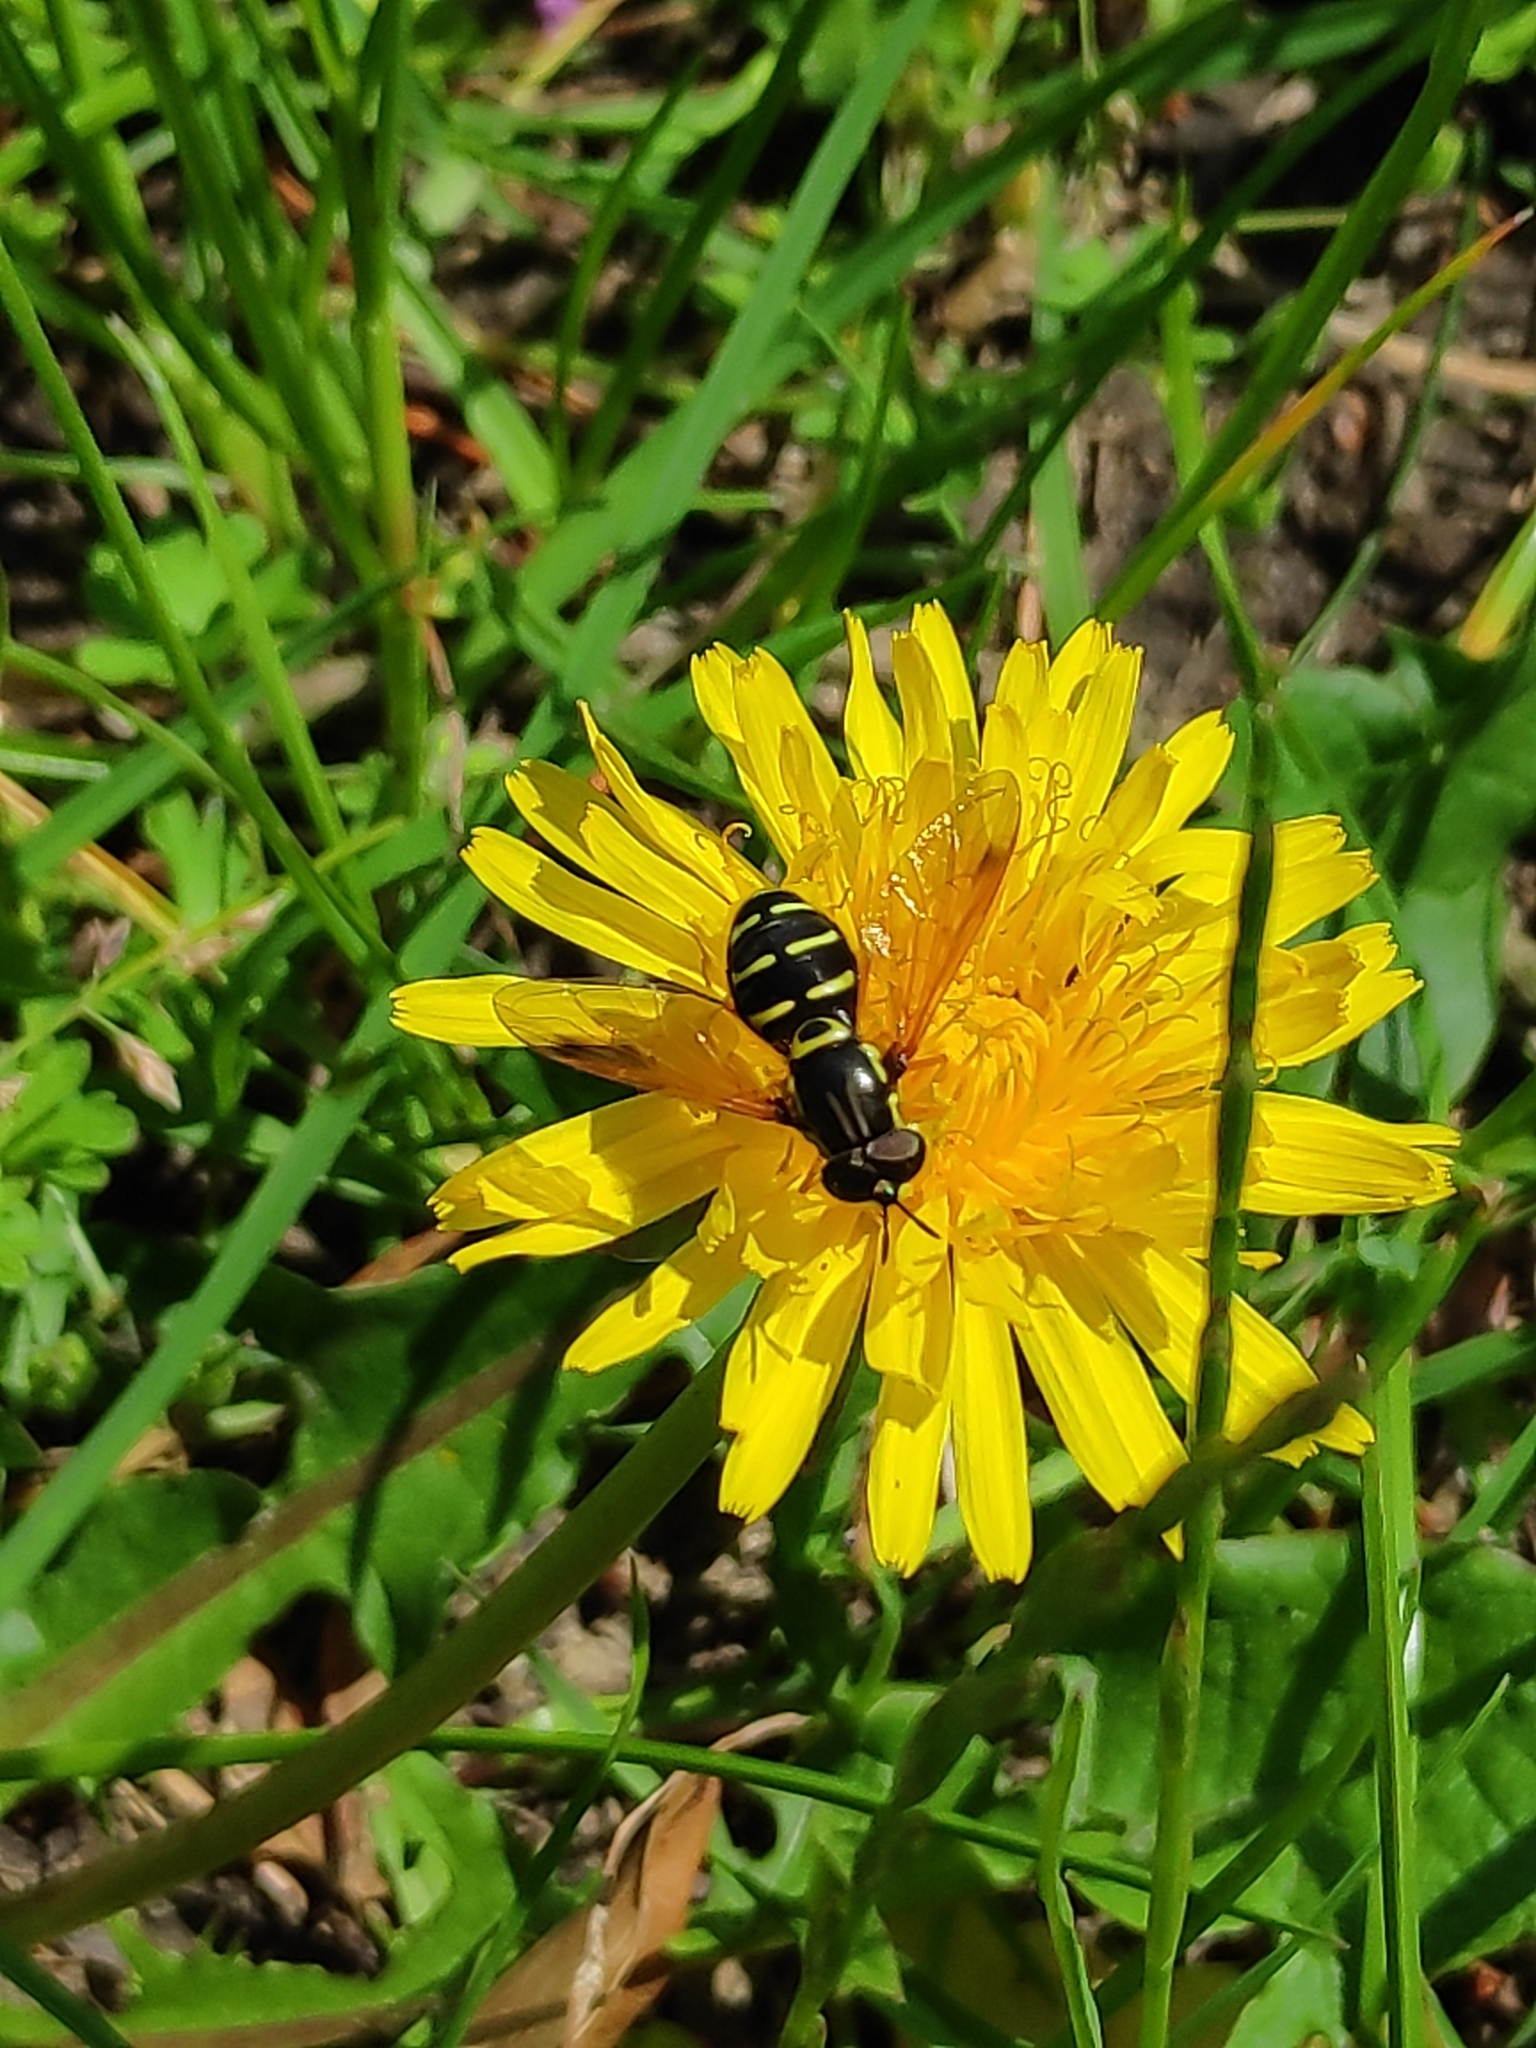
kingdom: Animalia
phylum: Arthropoda
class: Insecta
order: Diptera
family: Syrphidae
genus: Chrysotoxum
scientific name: Chrysotoxum festivum
